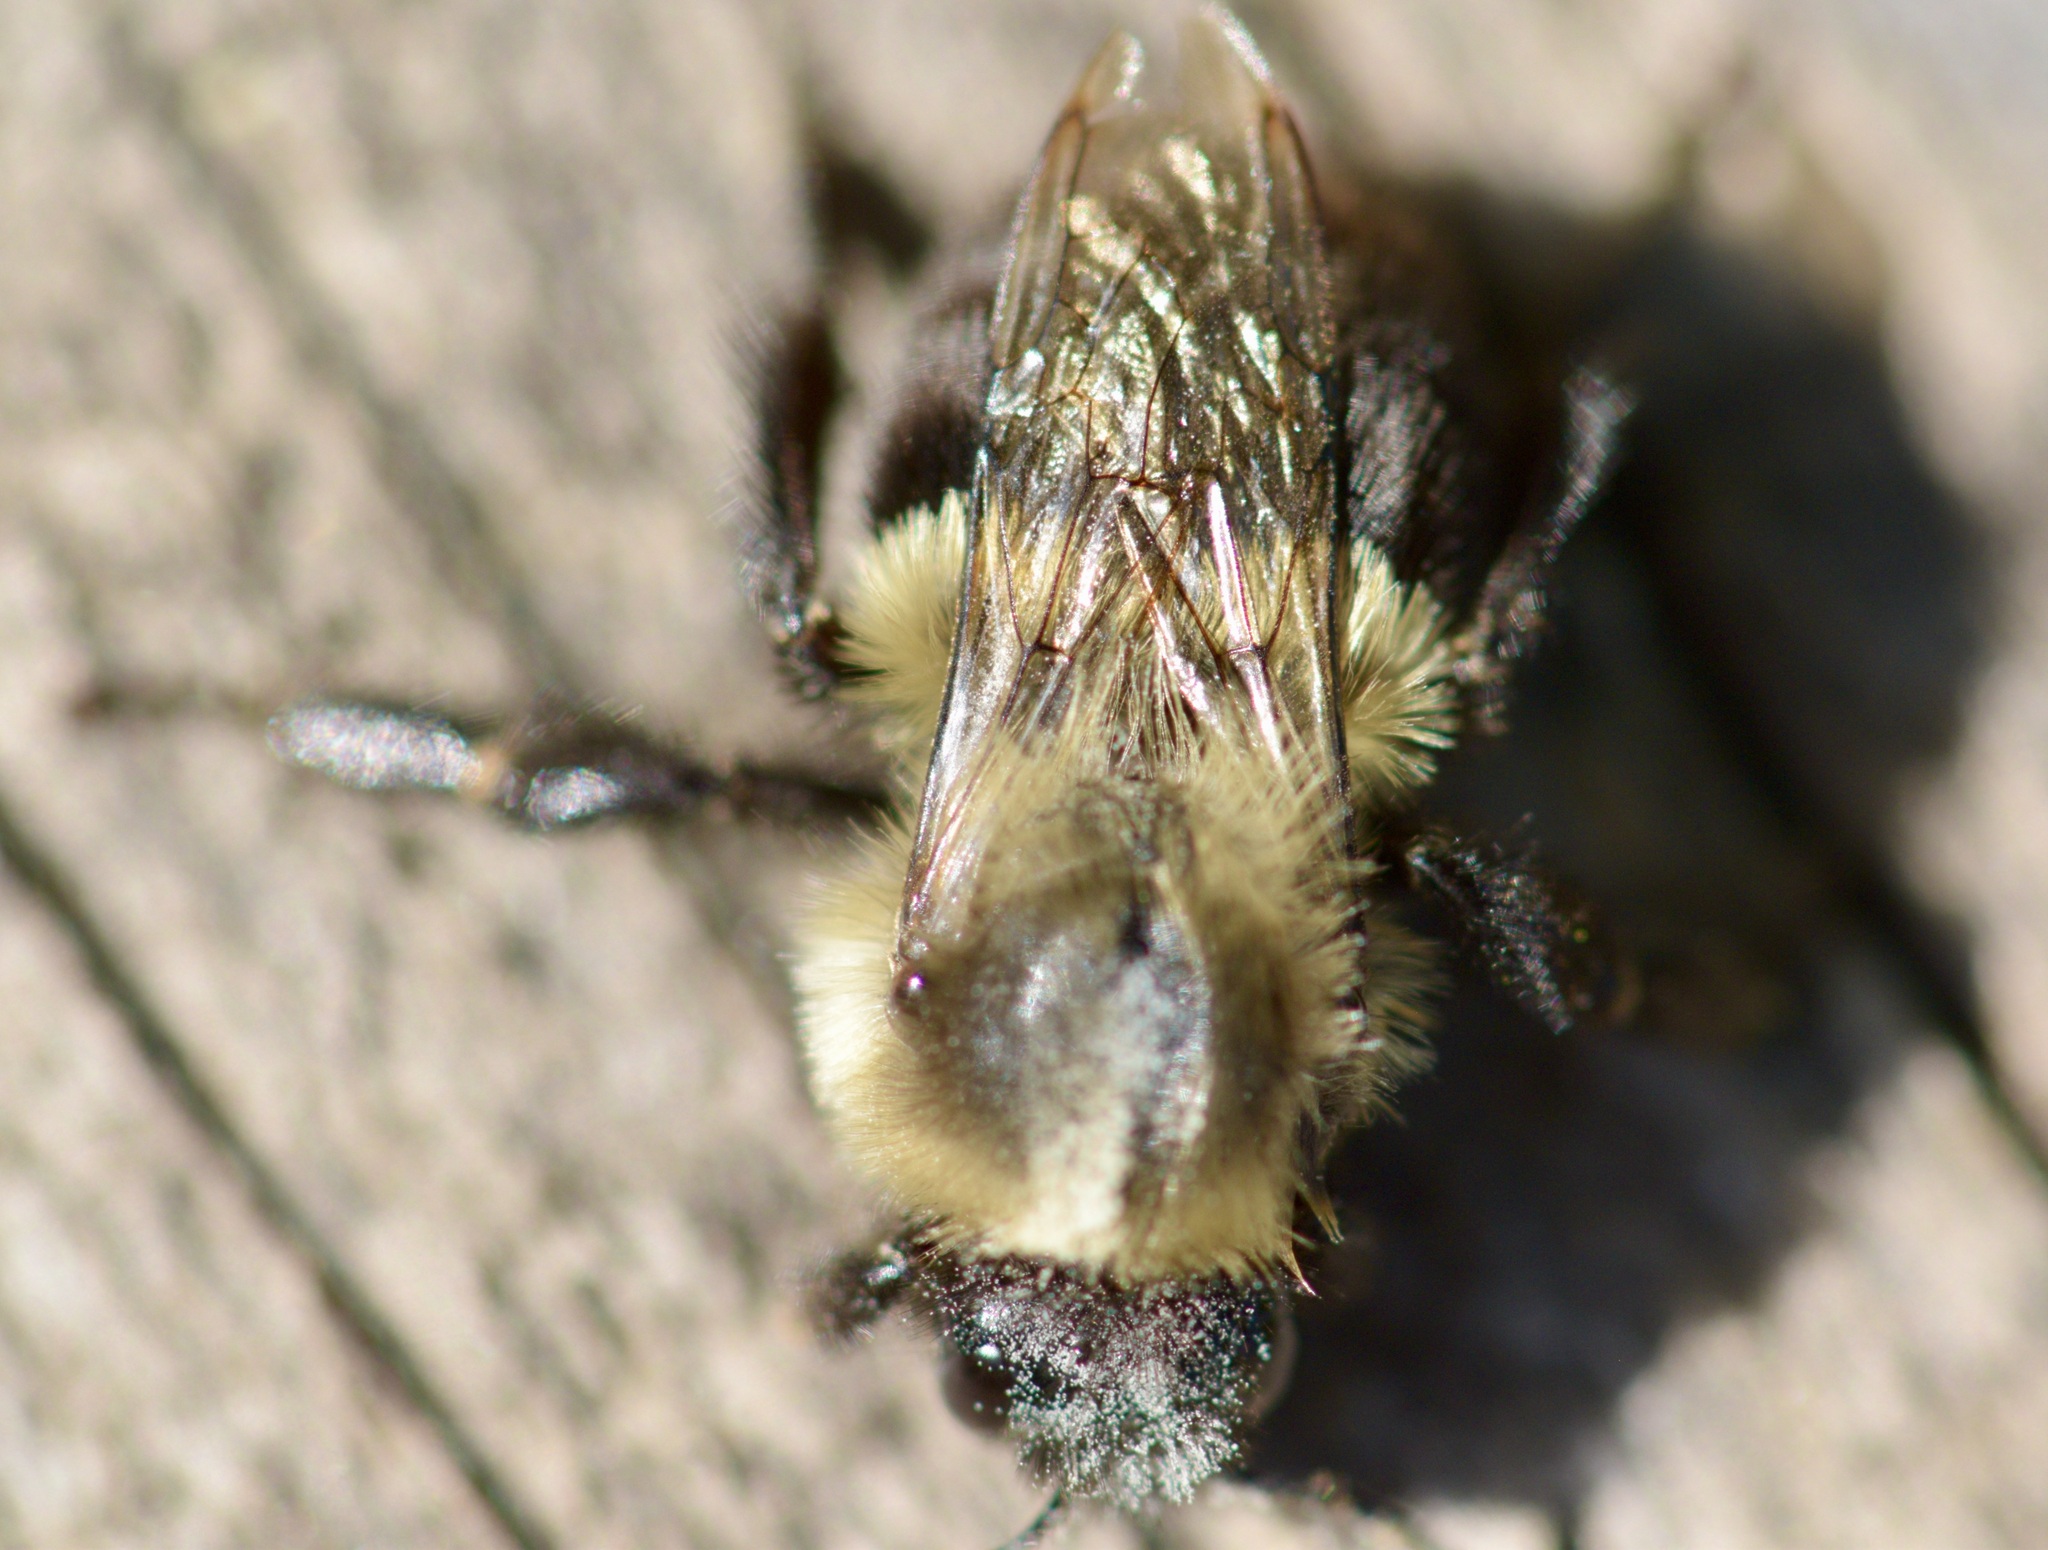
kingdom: Animalia
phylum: Arthropoda
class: Insecta
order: Hymenoptera
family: Apidae
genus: Bombus
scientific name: Bombus impatiens
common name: Common eastern bumble bee
